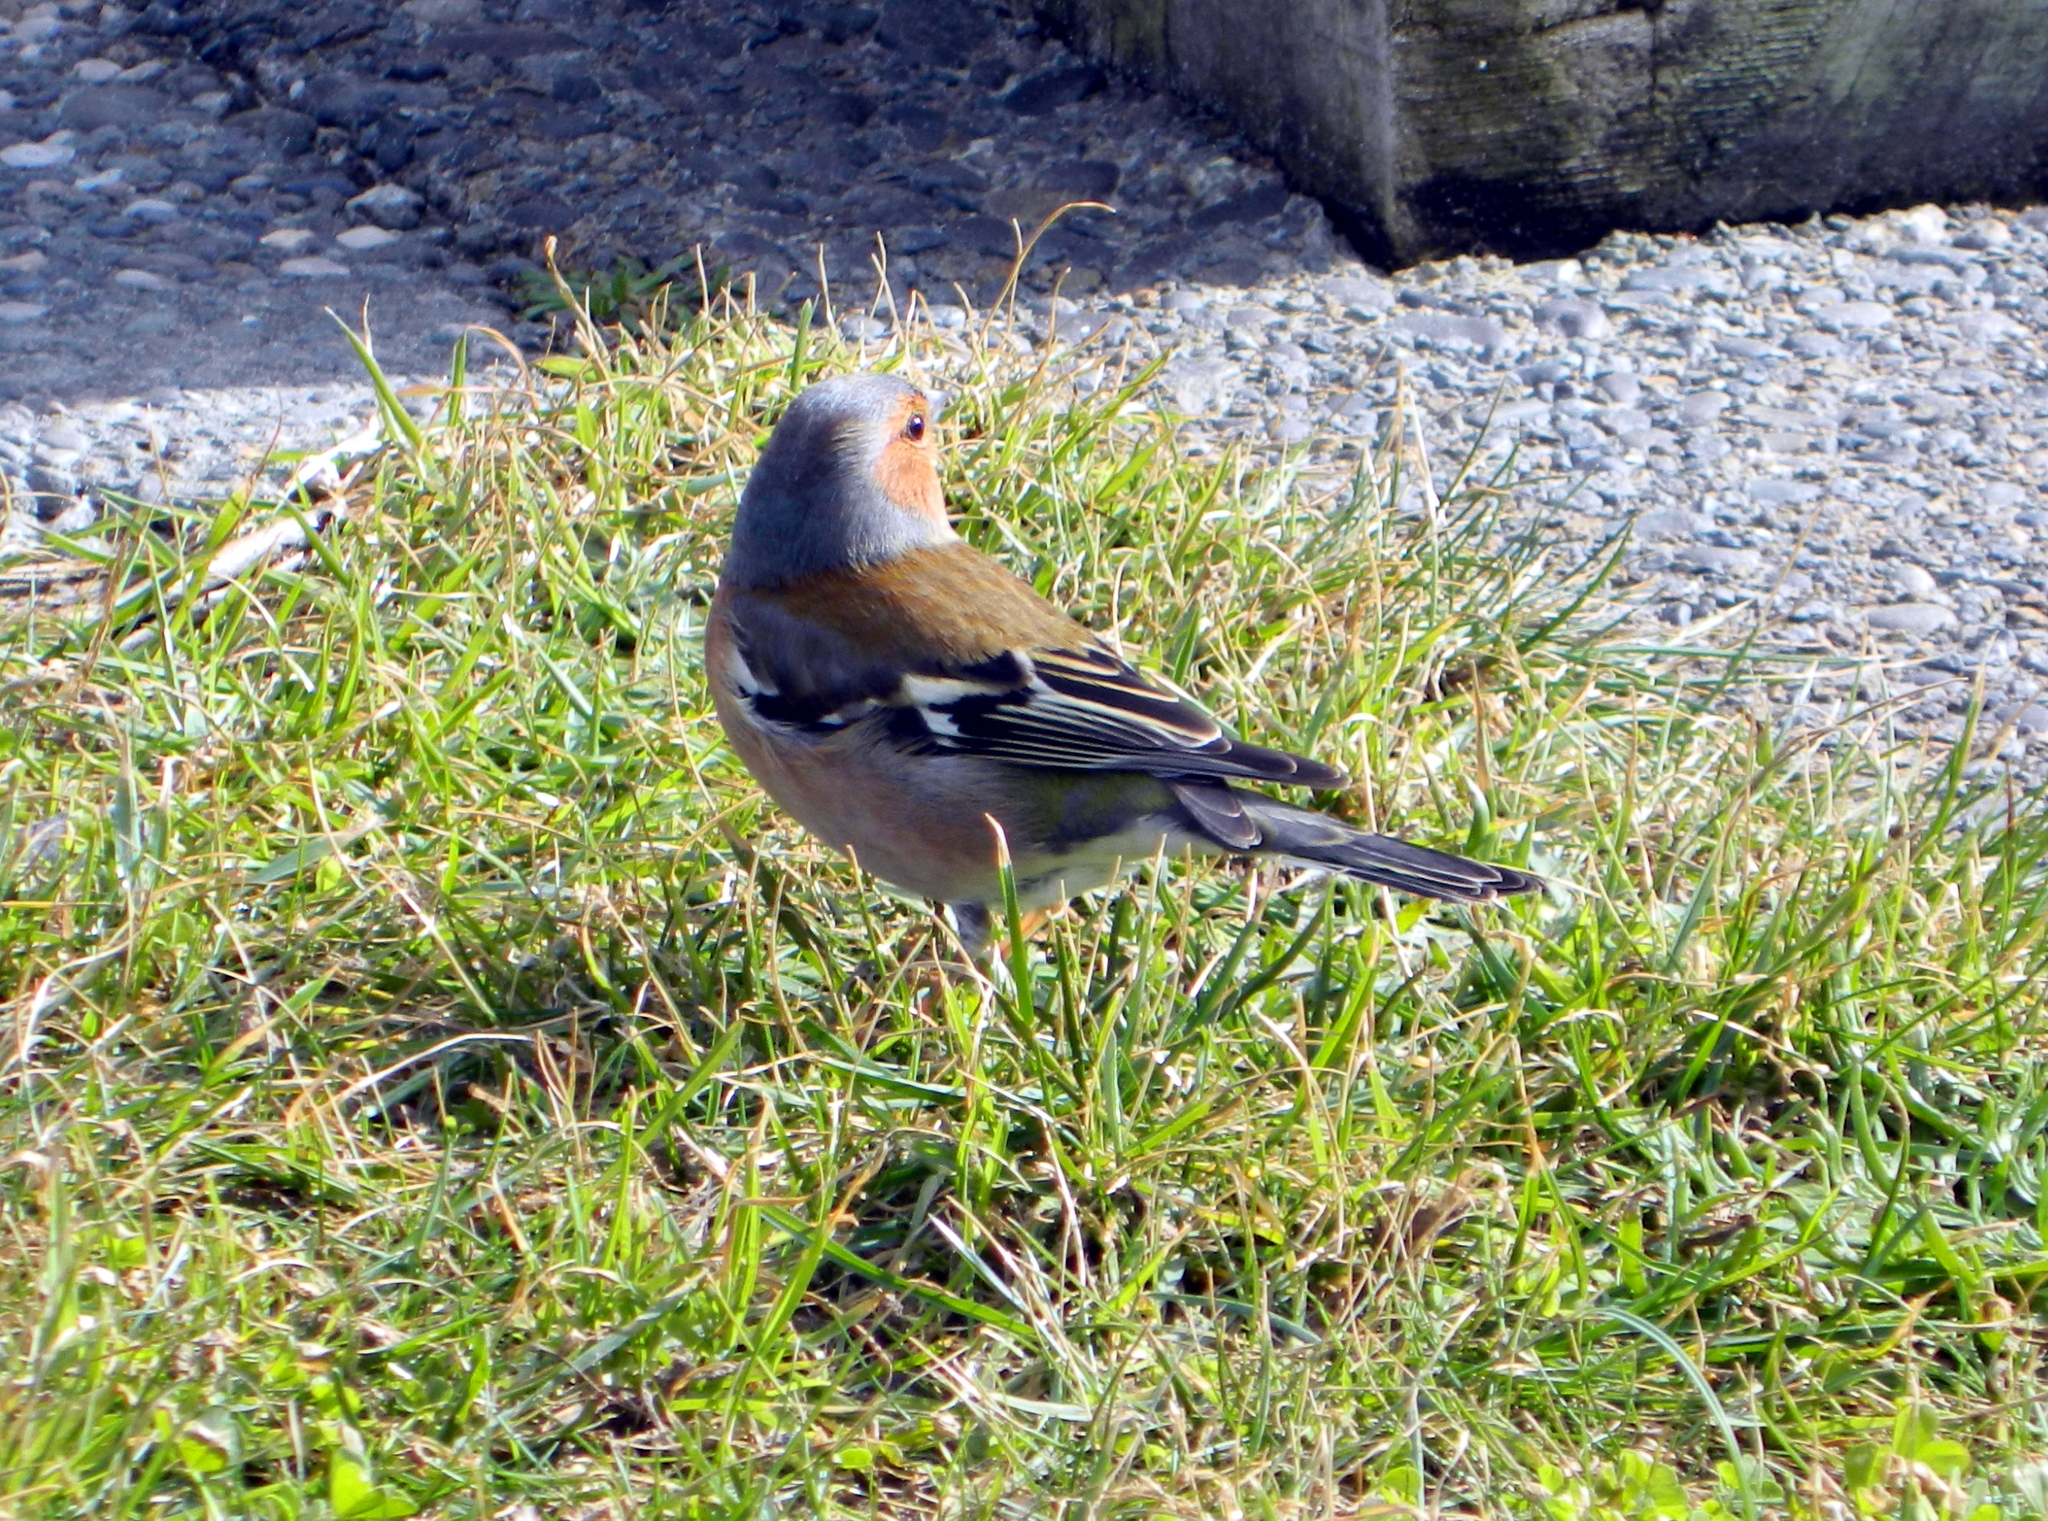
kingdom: Animalia
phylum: Chordata
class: Aves
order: Passeriformes
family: Fringillidae
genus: Fringilla
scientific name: Fringilla coelebs
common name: Common chaffinch
